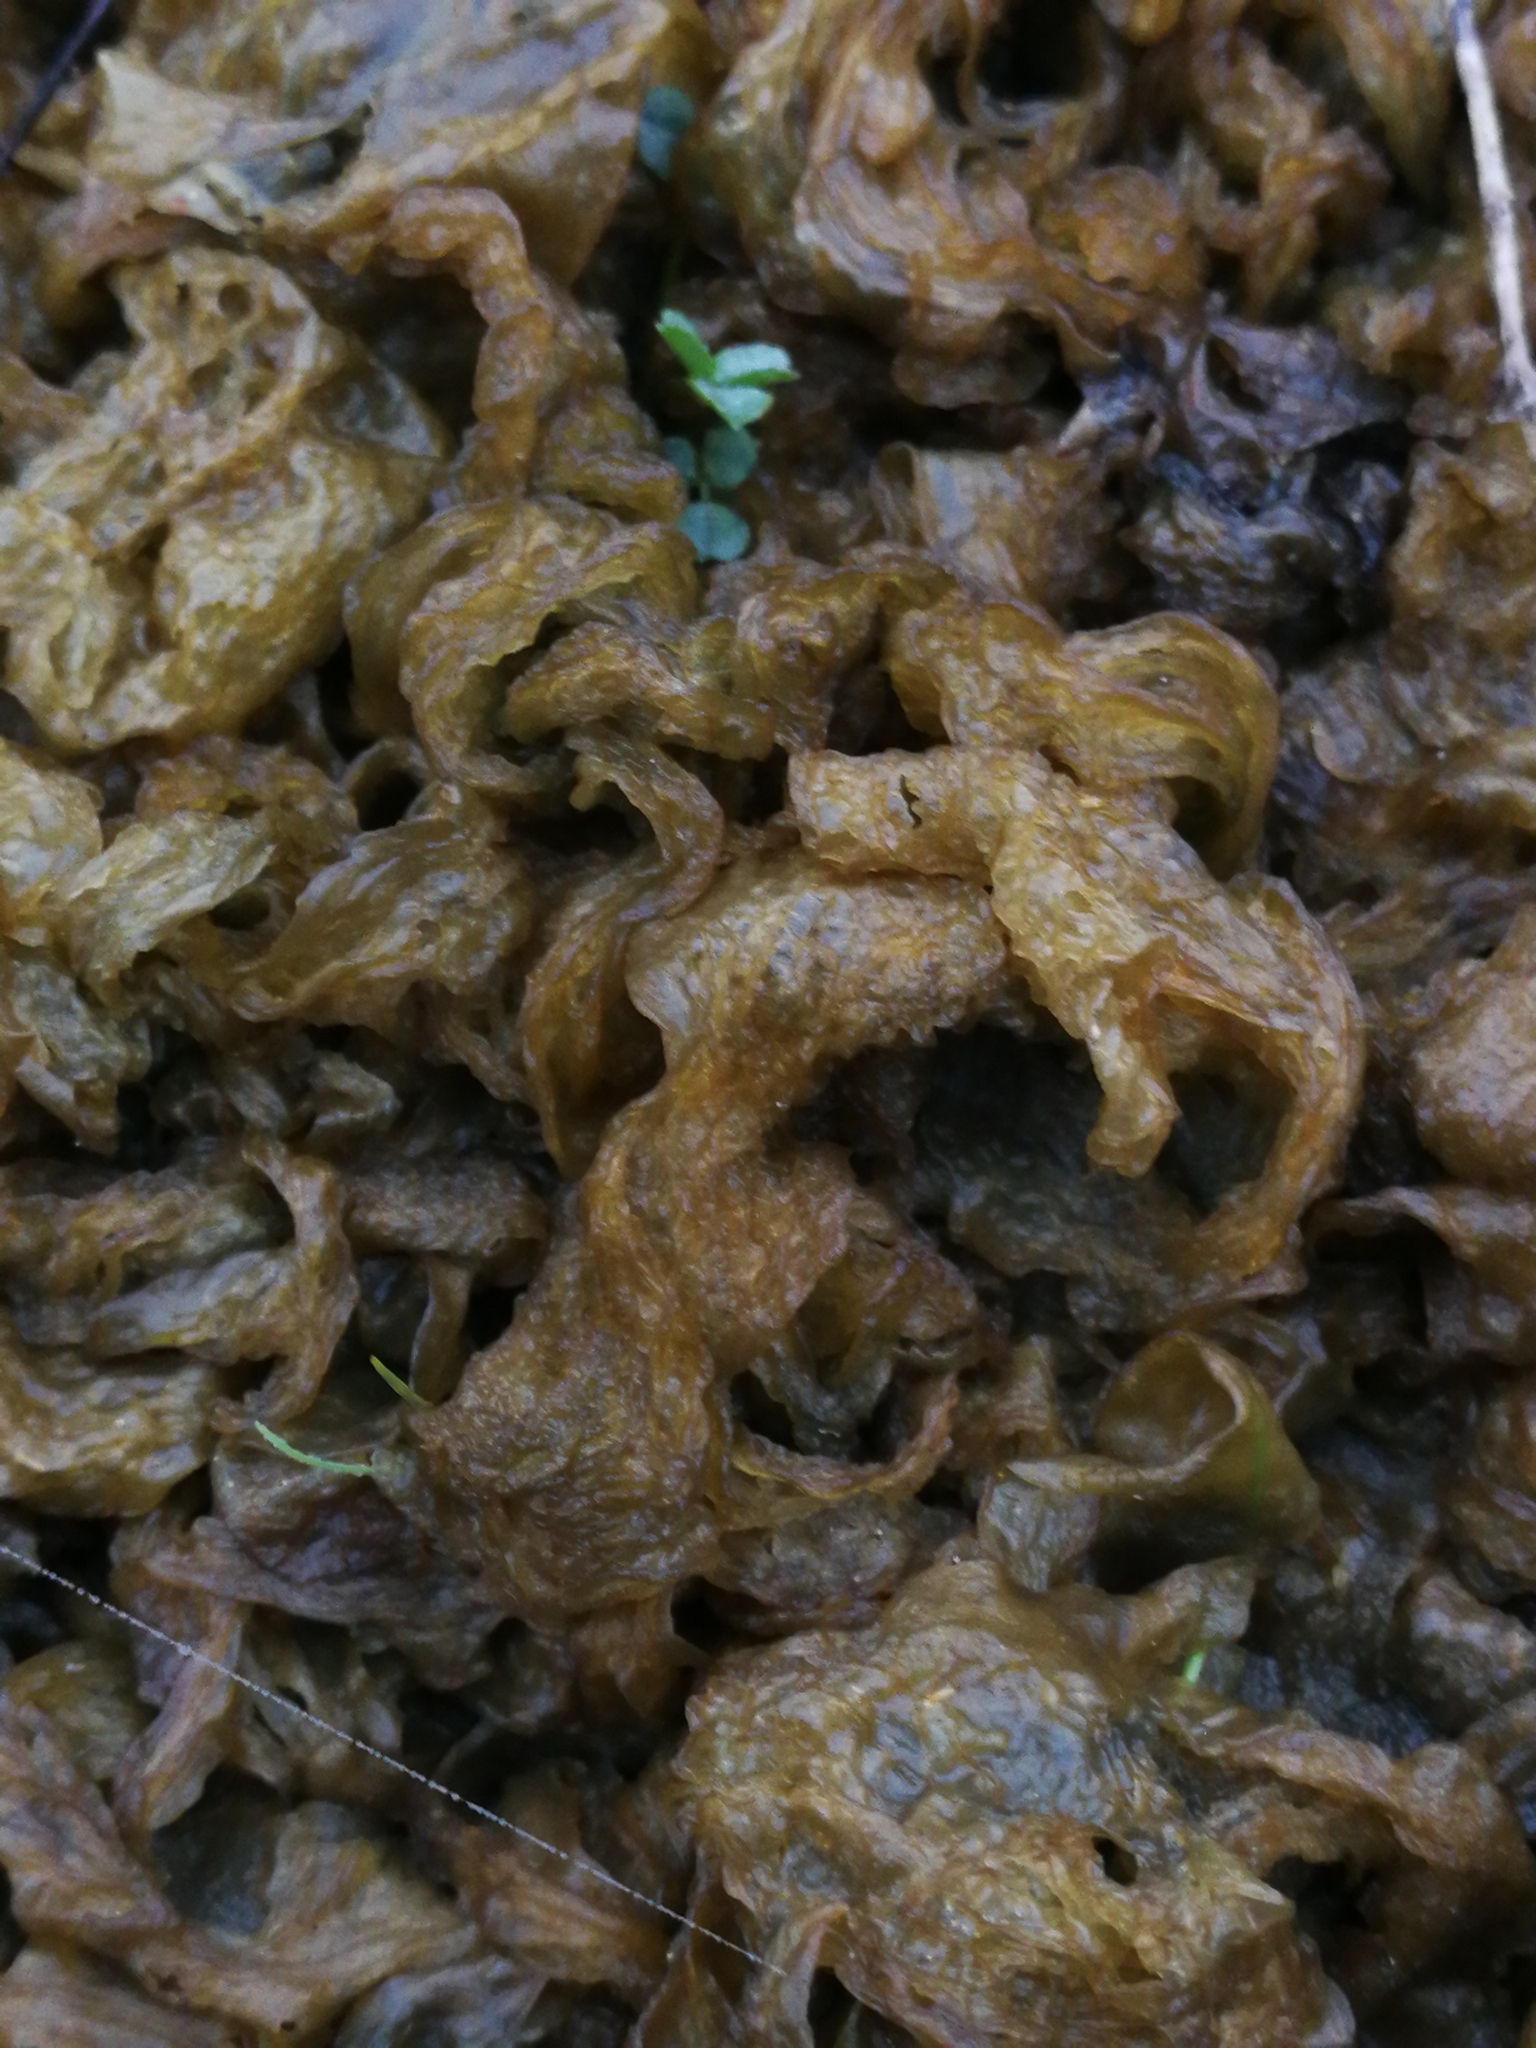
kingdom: Bacteria
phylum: Cyanobacteria
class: Cyanobacteriia
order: Cyanobacteriales
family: Nostocaceae
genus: Nostoc
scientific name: Nostoc commune
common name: Star jelly
